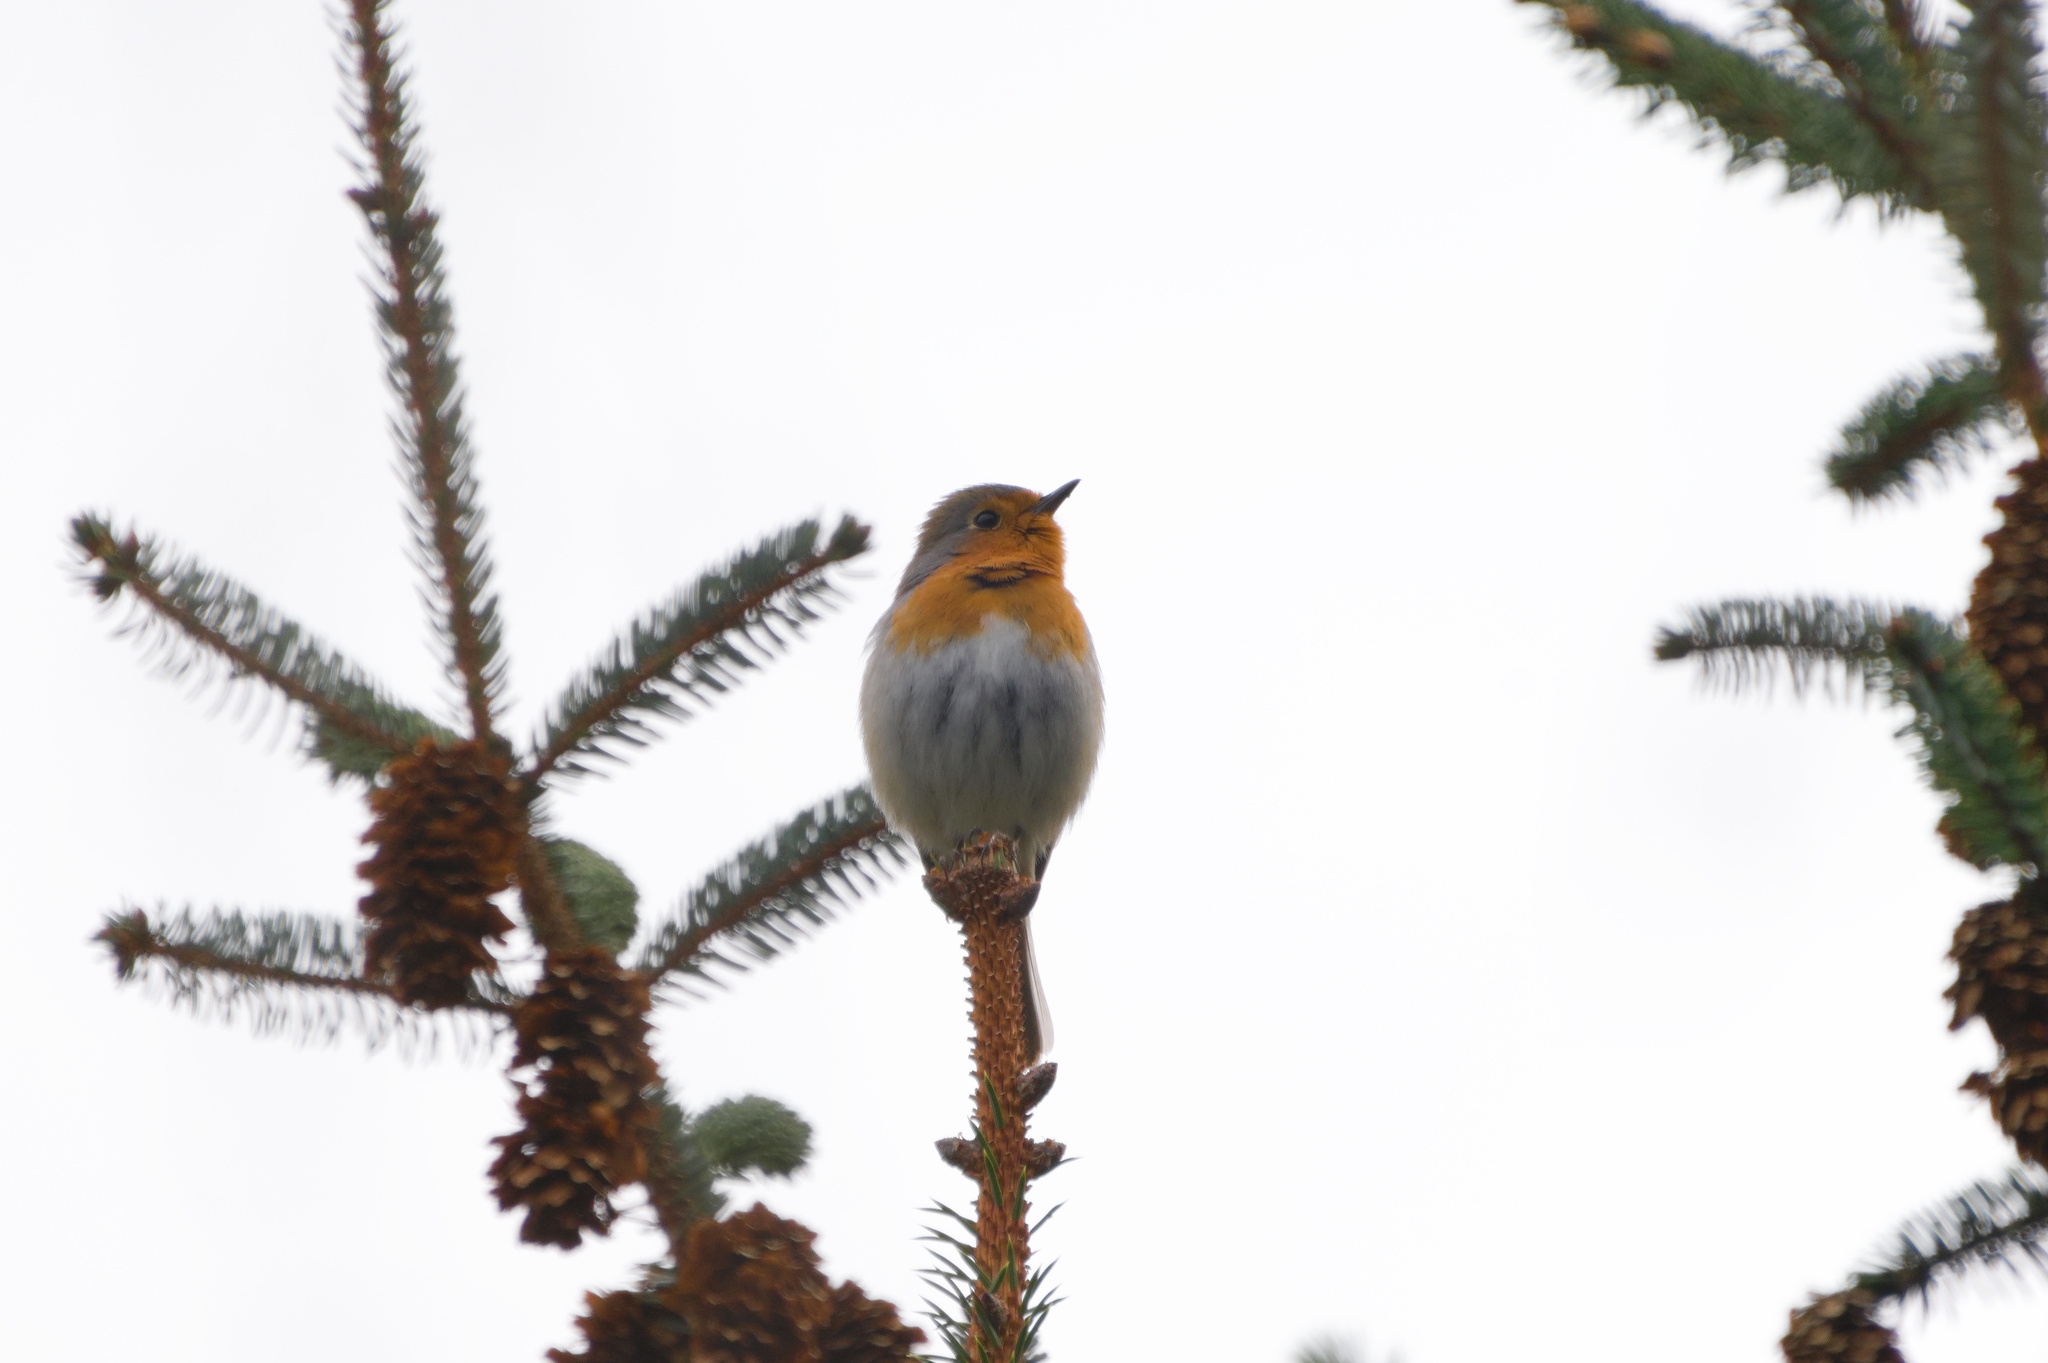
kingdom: Animalia
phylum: Chordata
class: Aves
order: Passeriformes
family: Muscicapidae
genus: Erithacus
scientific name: Erithacus rubecula
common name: European robin
